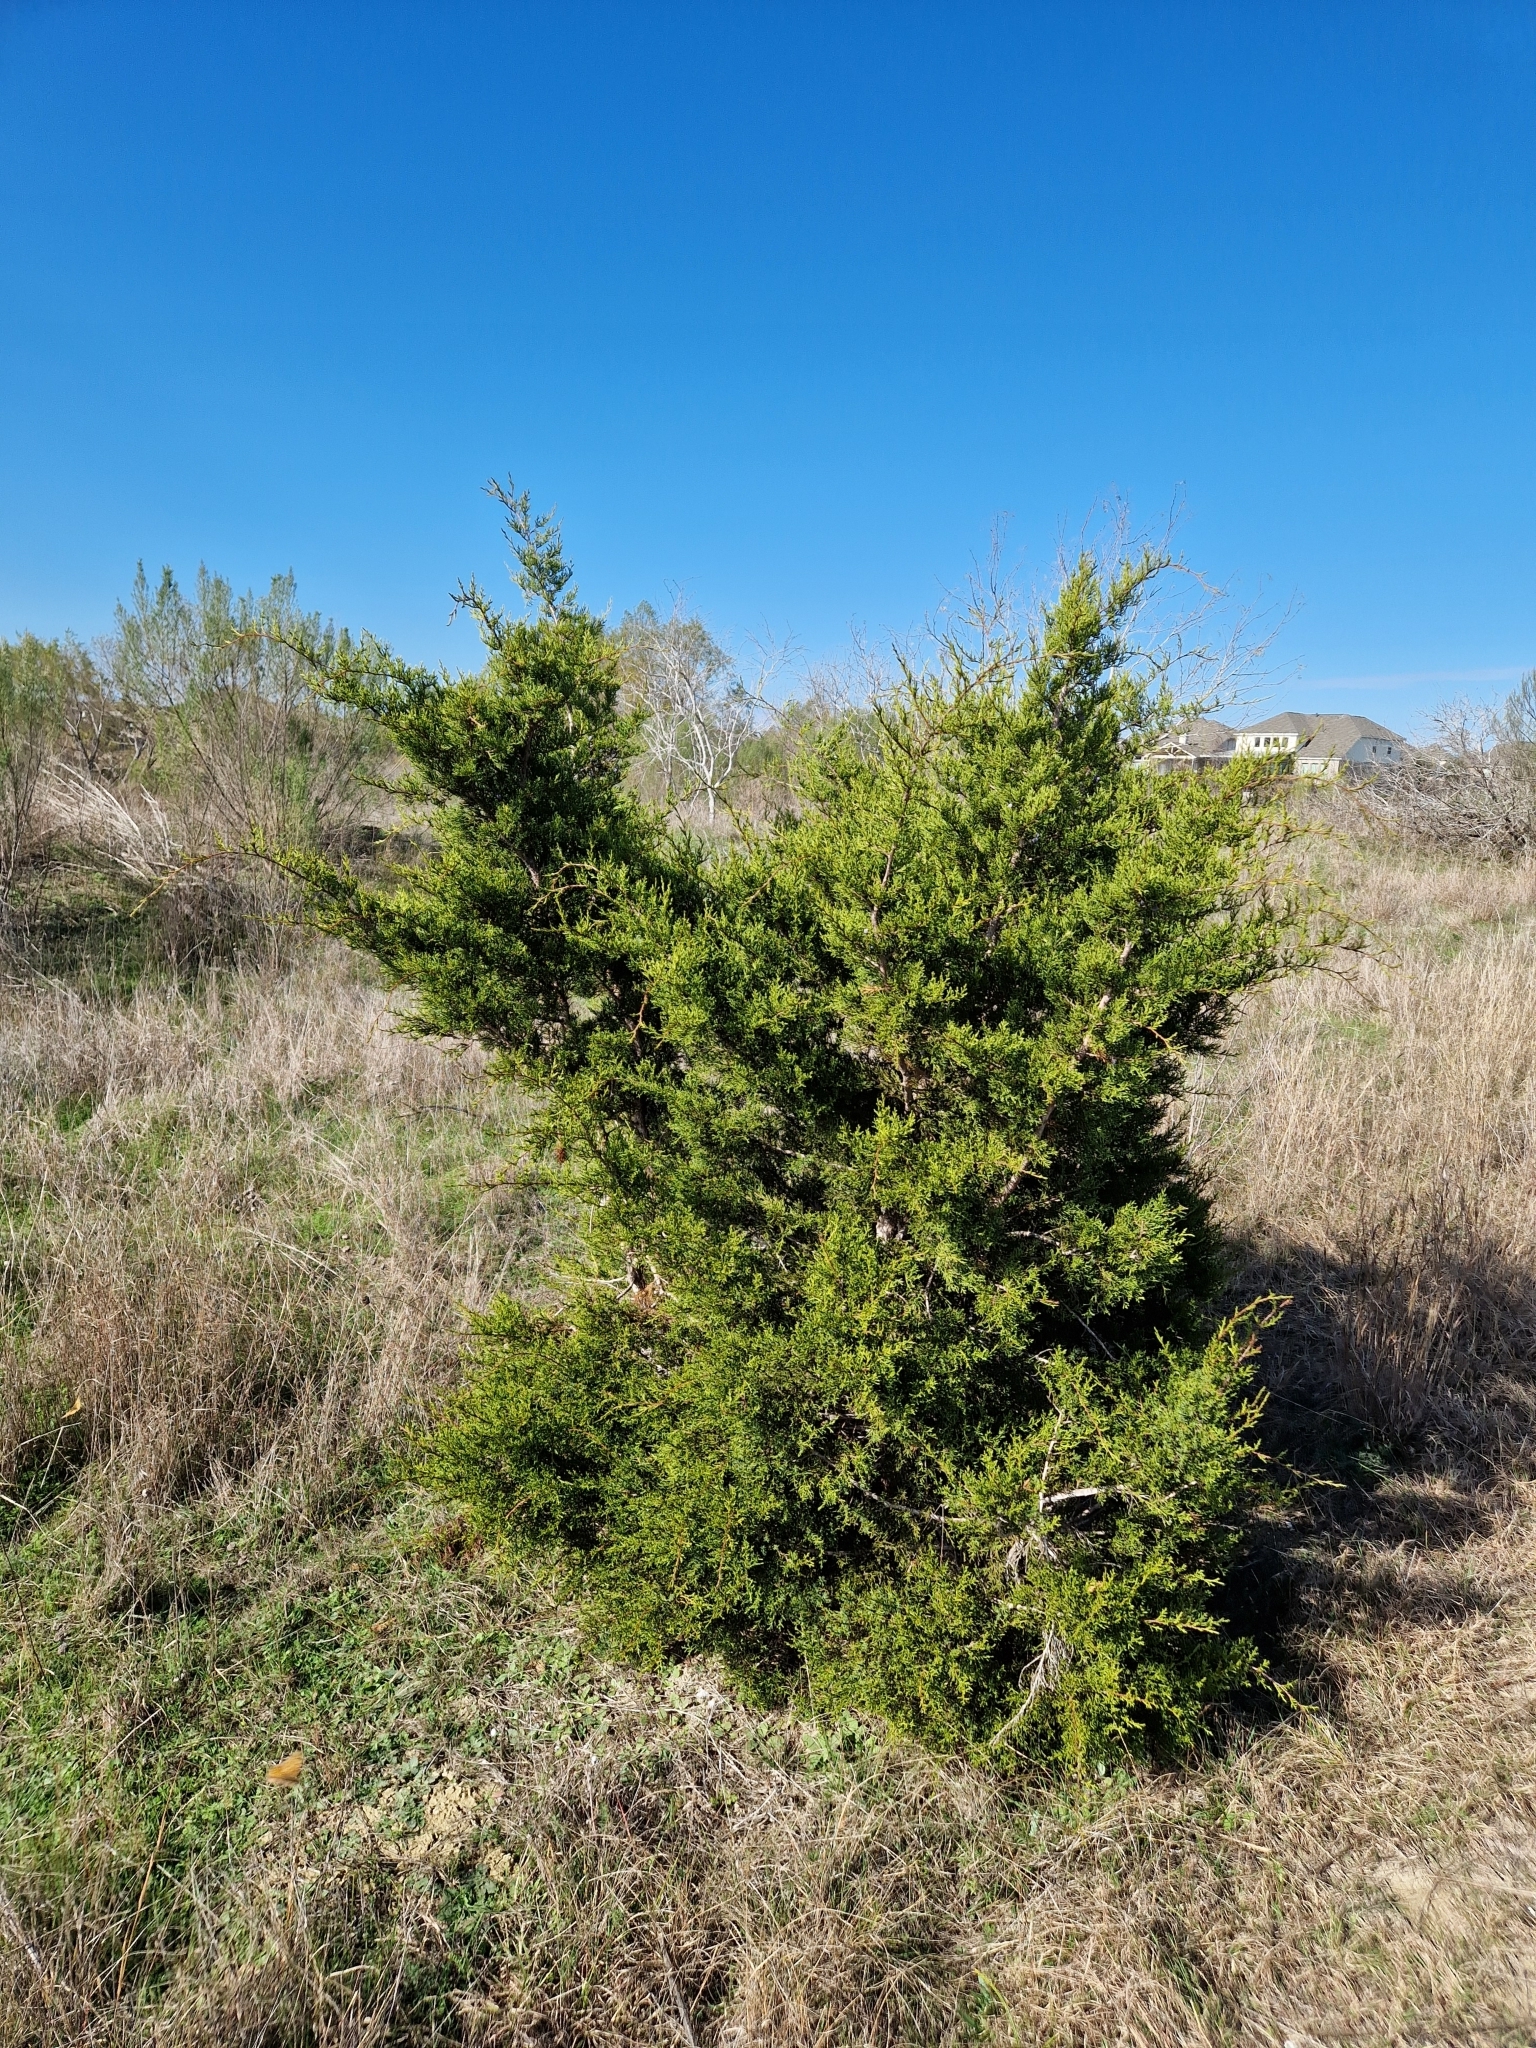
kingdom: Plantae
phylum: Tracheophyta
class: Pinopsida
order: Pinales
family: Cupressaceae
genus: Juniperus
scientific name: Juniperus ashei
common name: Mexican juniper
